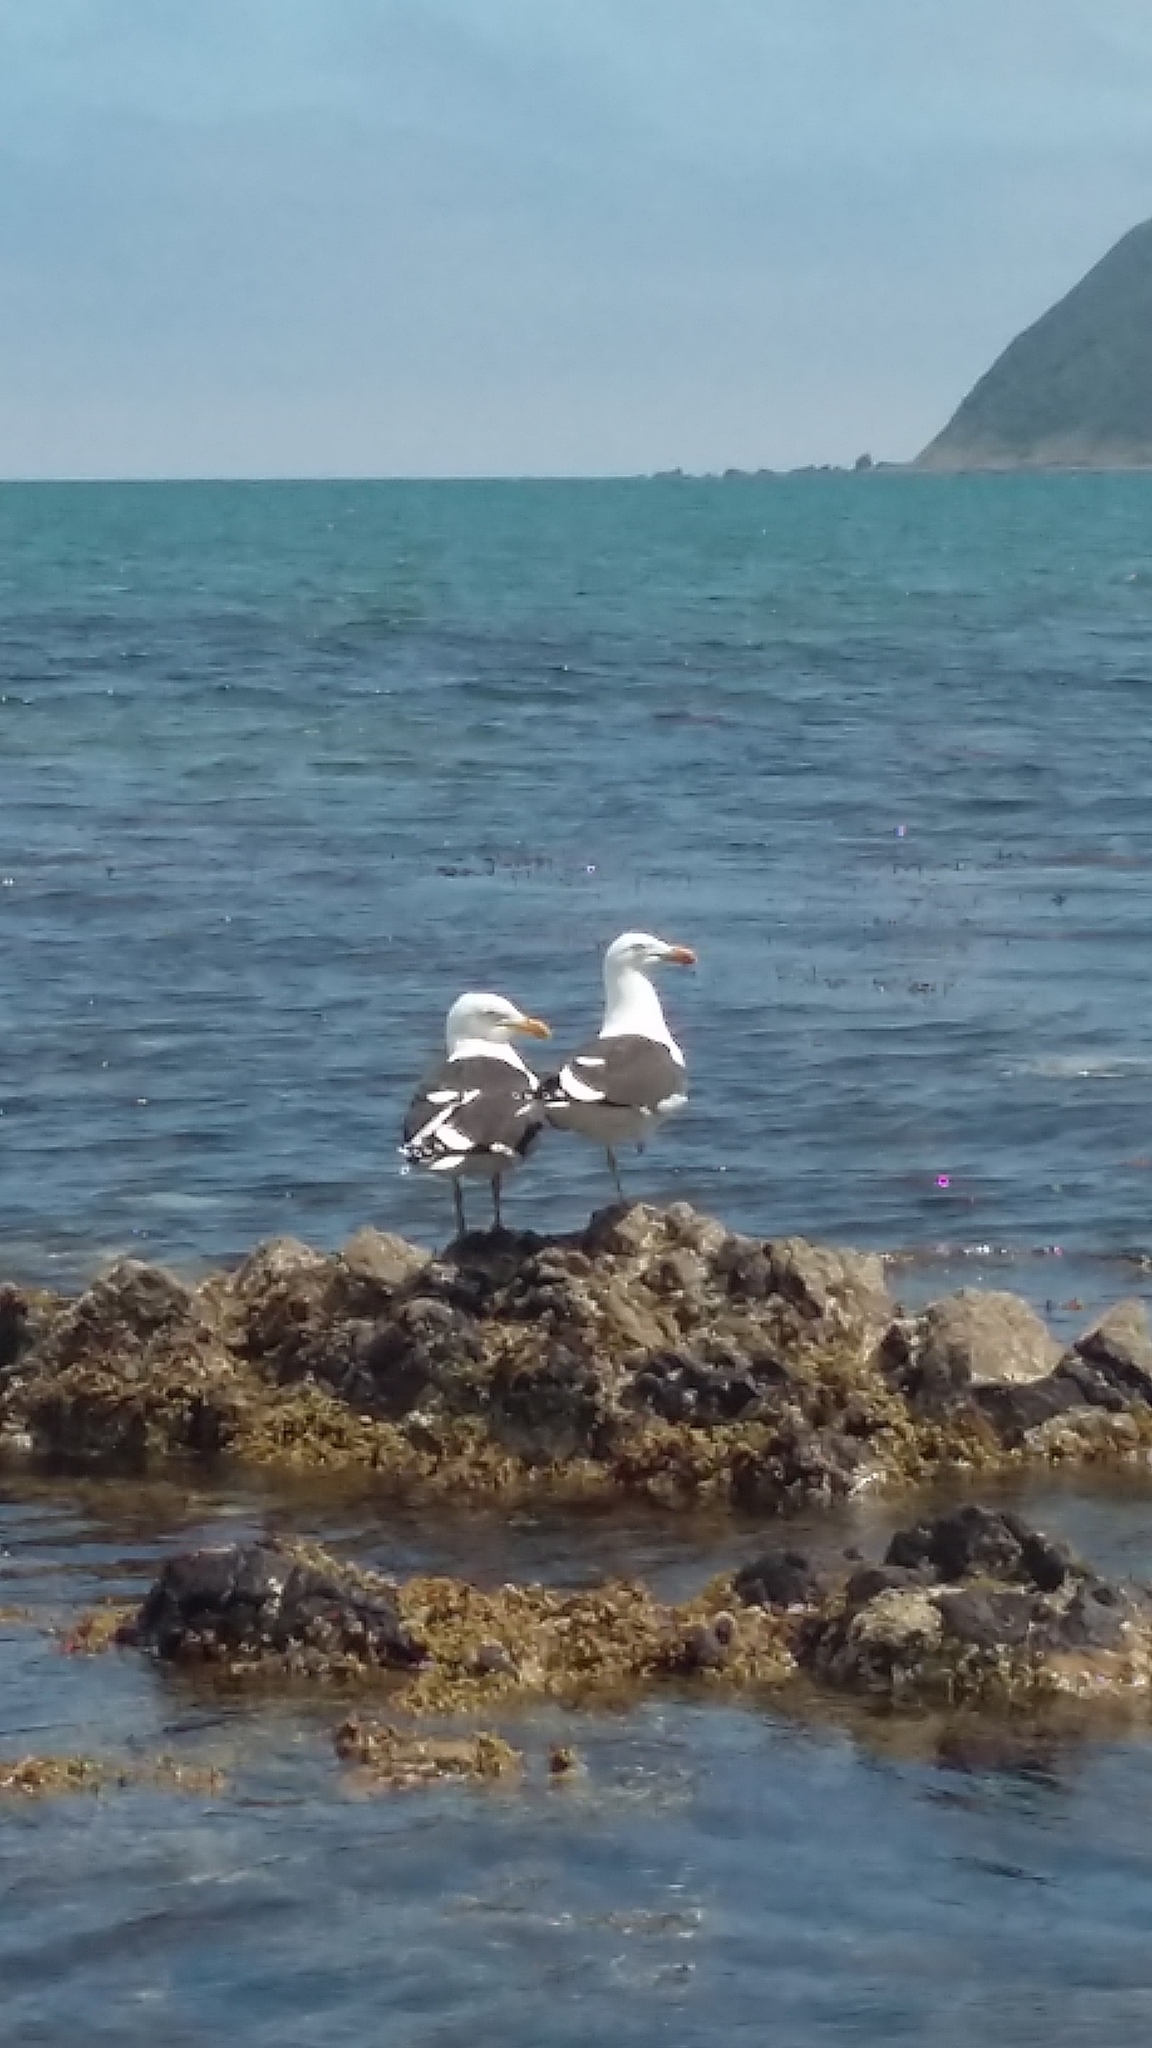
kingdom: Animalia
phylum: Chordata
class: Aves
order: Charadriiformes
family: Laridae
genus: Larus
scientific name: Larus dominicanus
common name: Kelp gull
